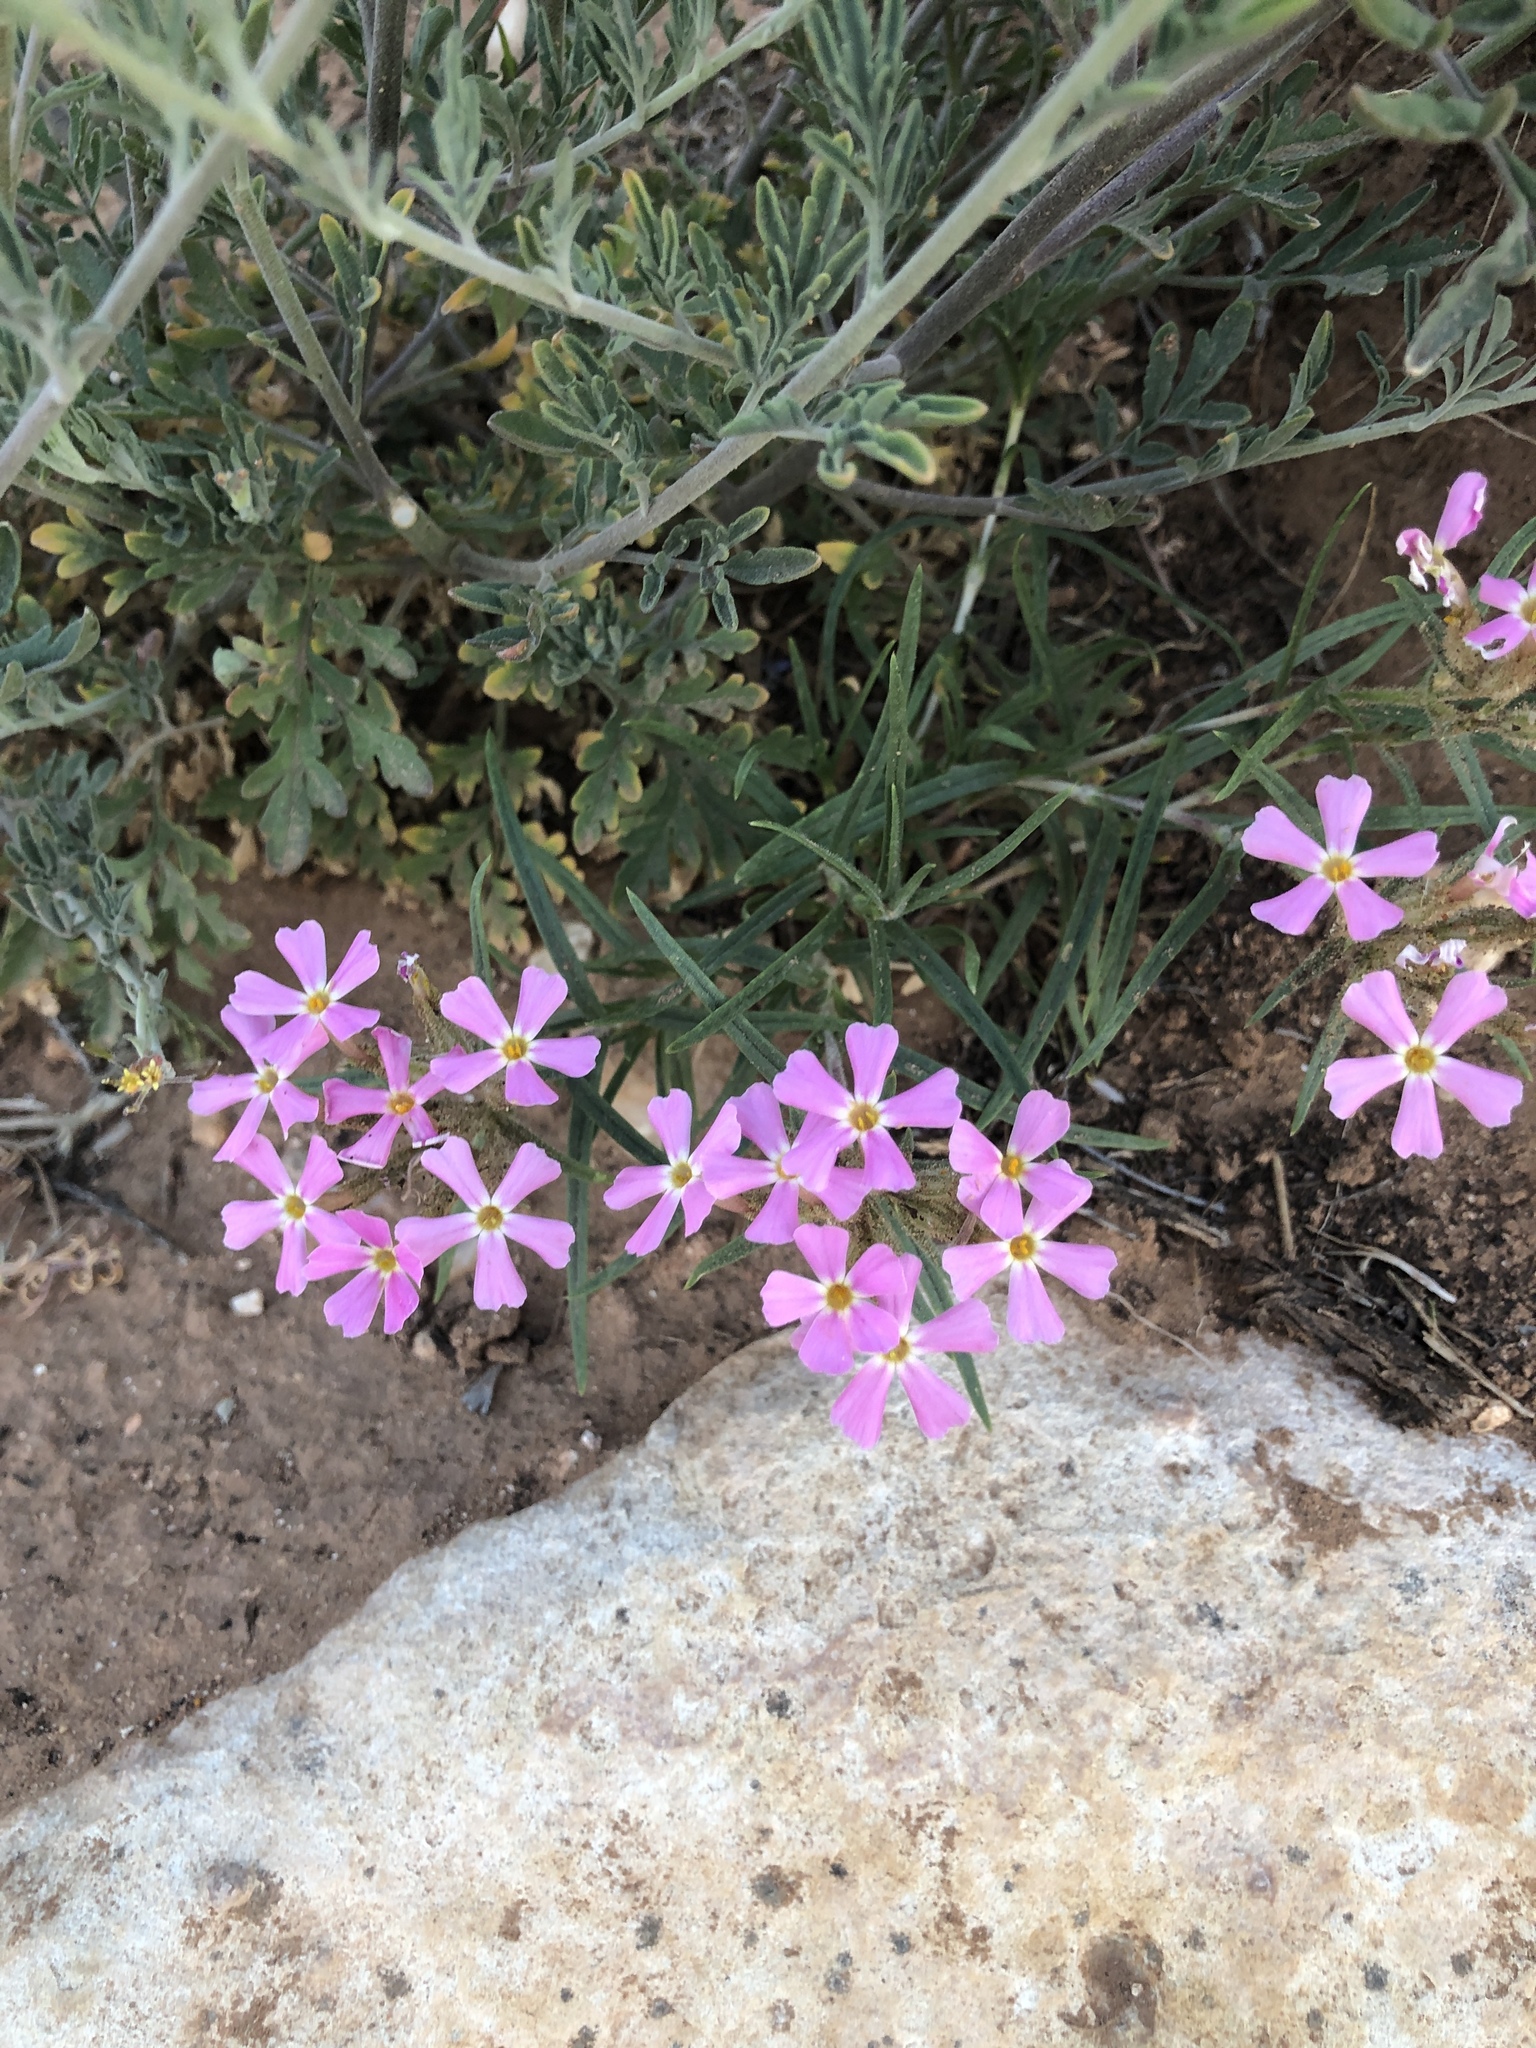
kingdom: Plantae
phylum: Tracheophyta
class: Magnoliopsida
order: Ericales
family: Polemoniaceae
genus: Phlox
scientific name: Phlox amabilis
